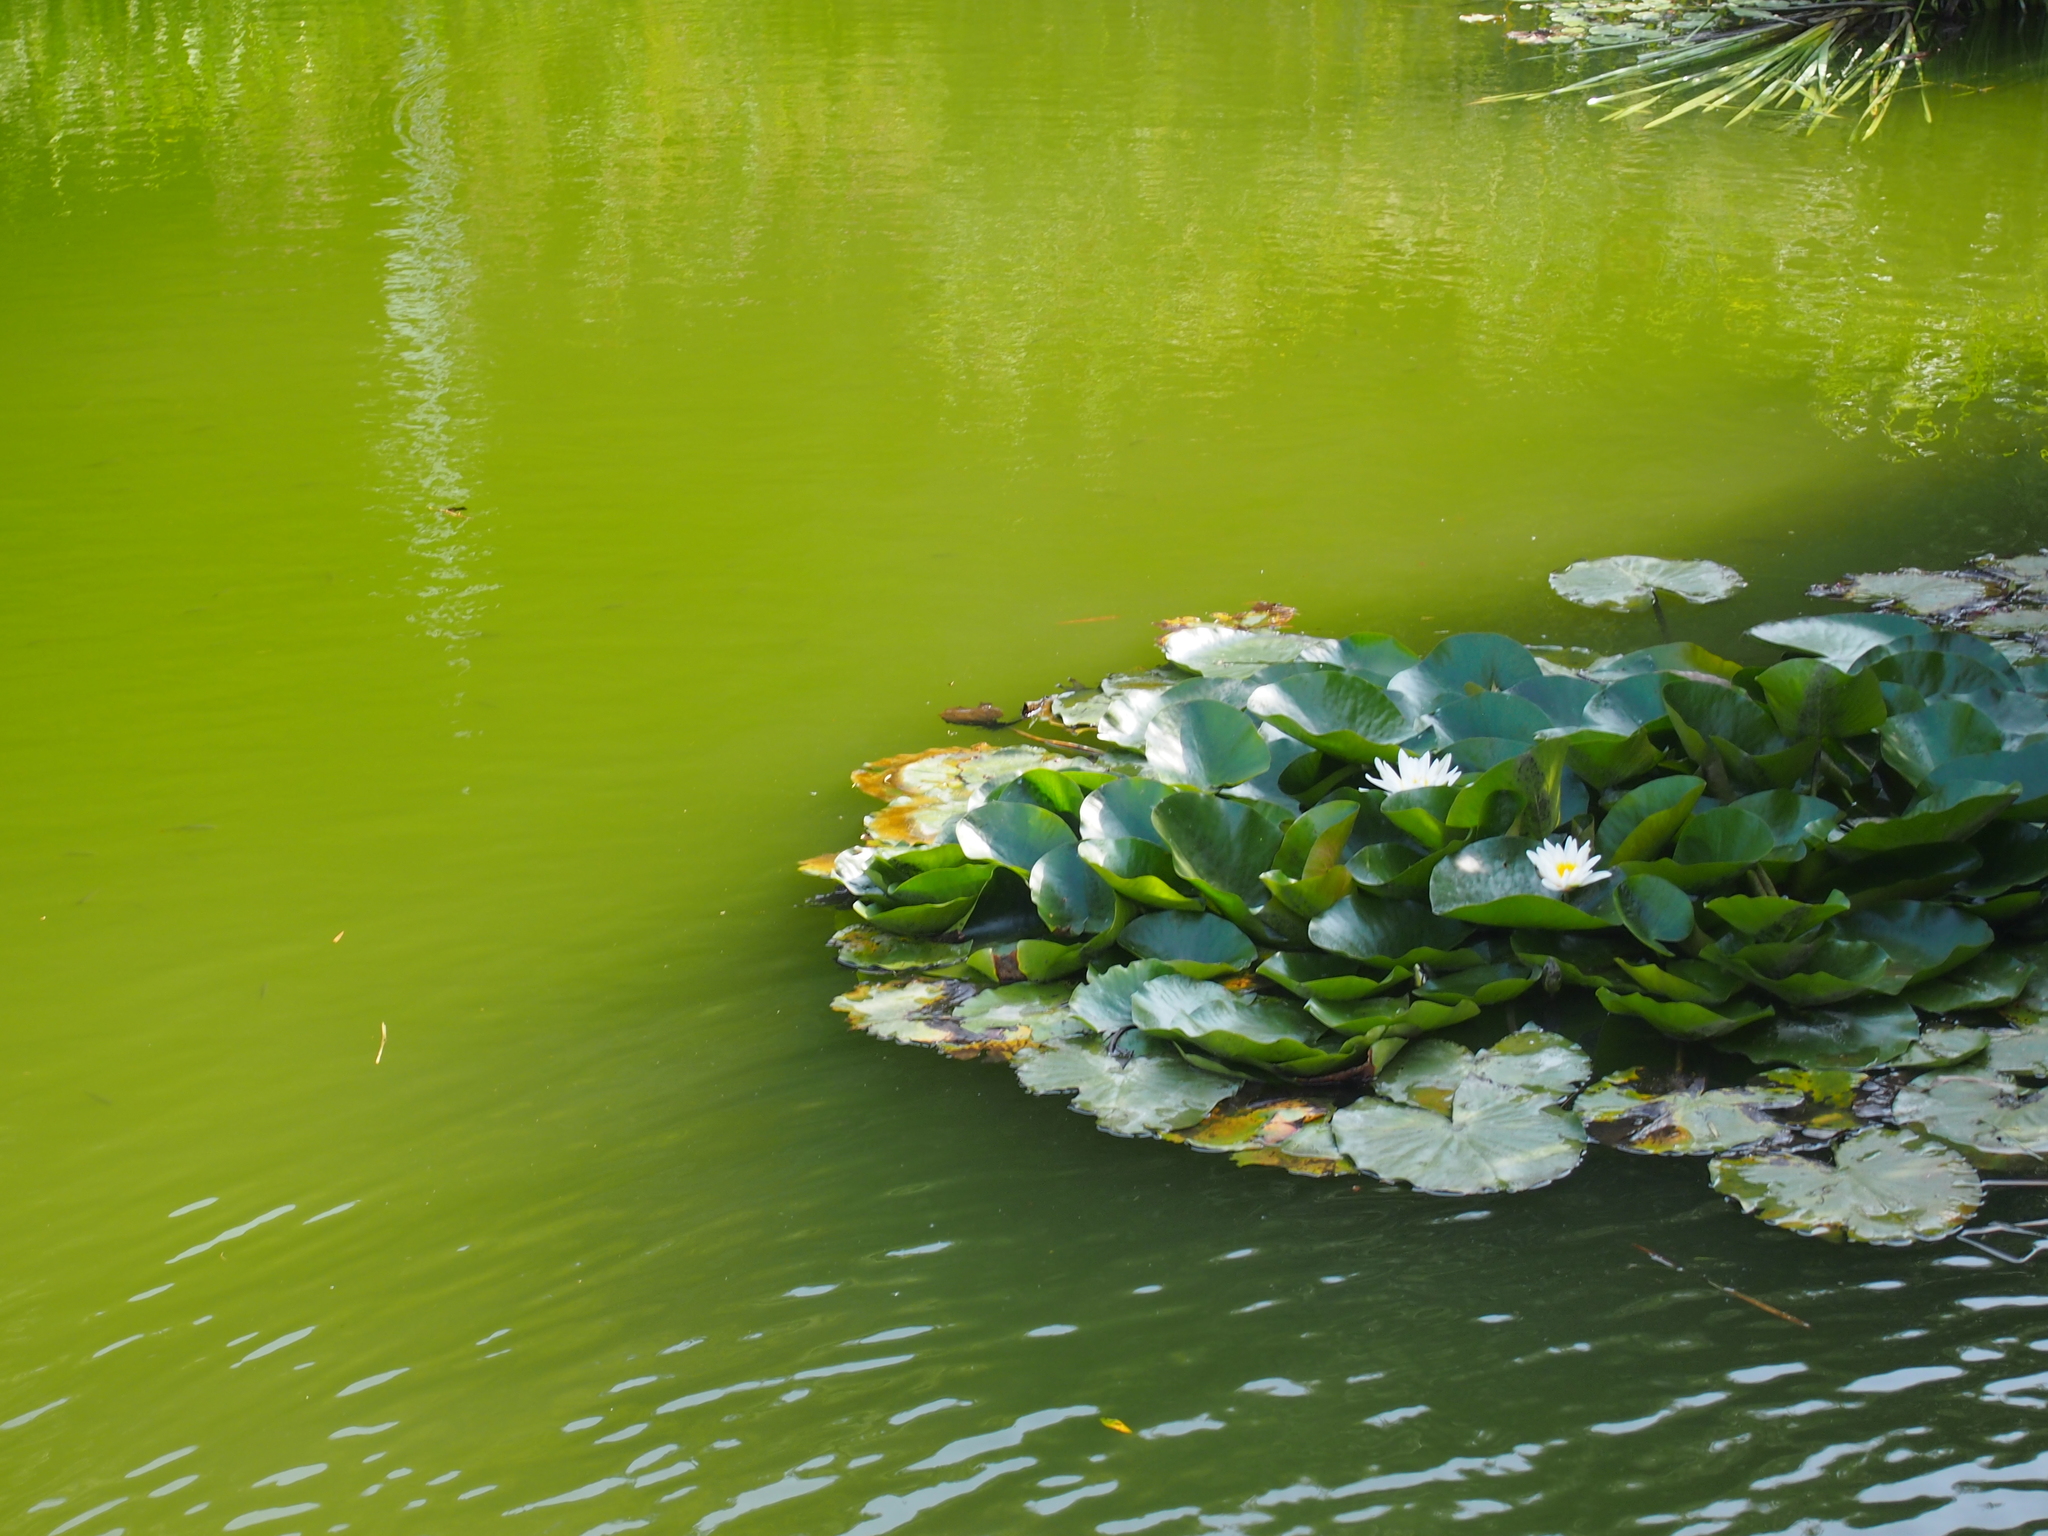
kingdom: Plantae
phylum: Tracheophyta
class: Magnoliopsida
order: Nymphaeales
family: Nymphaeaceae
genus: Nymphaea
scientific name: Nymphaea alba
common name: White water-lily
